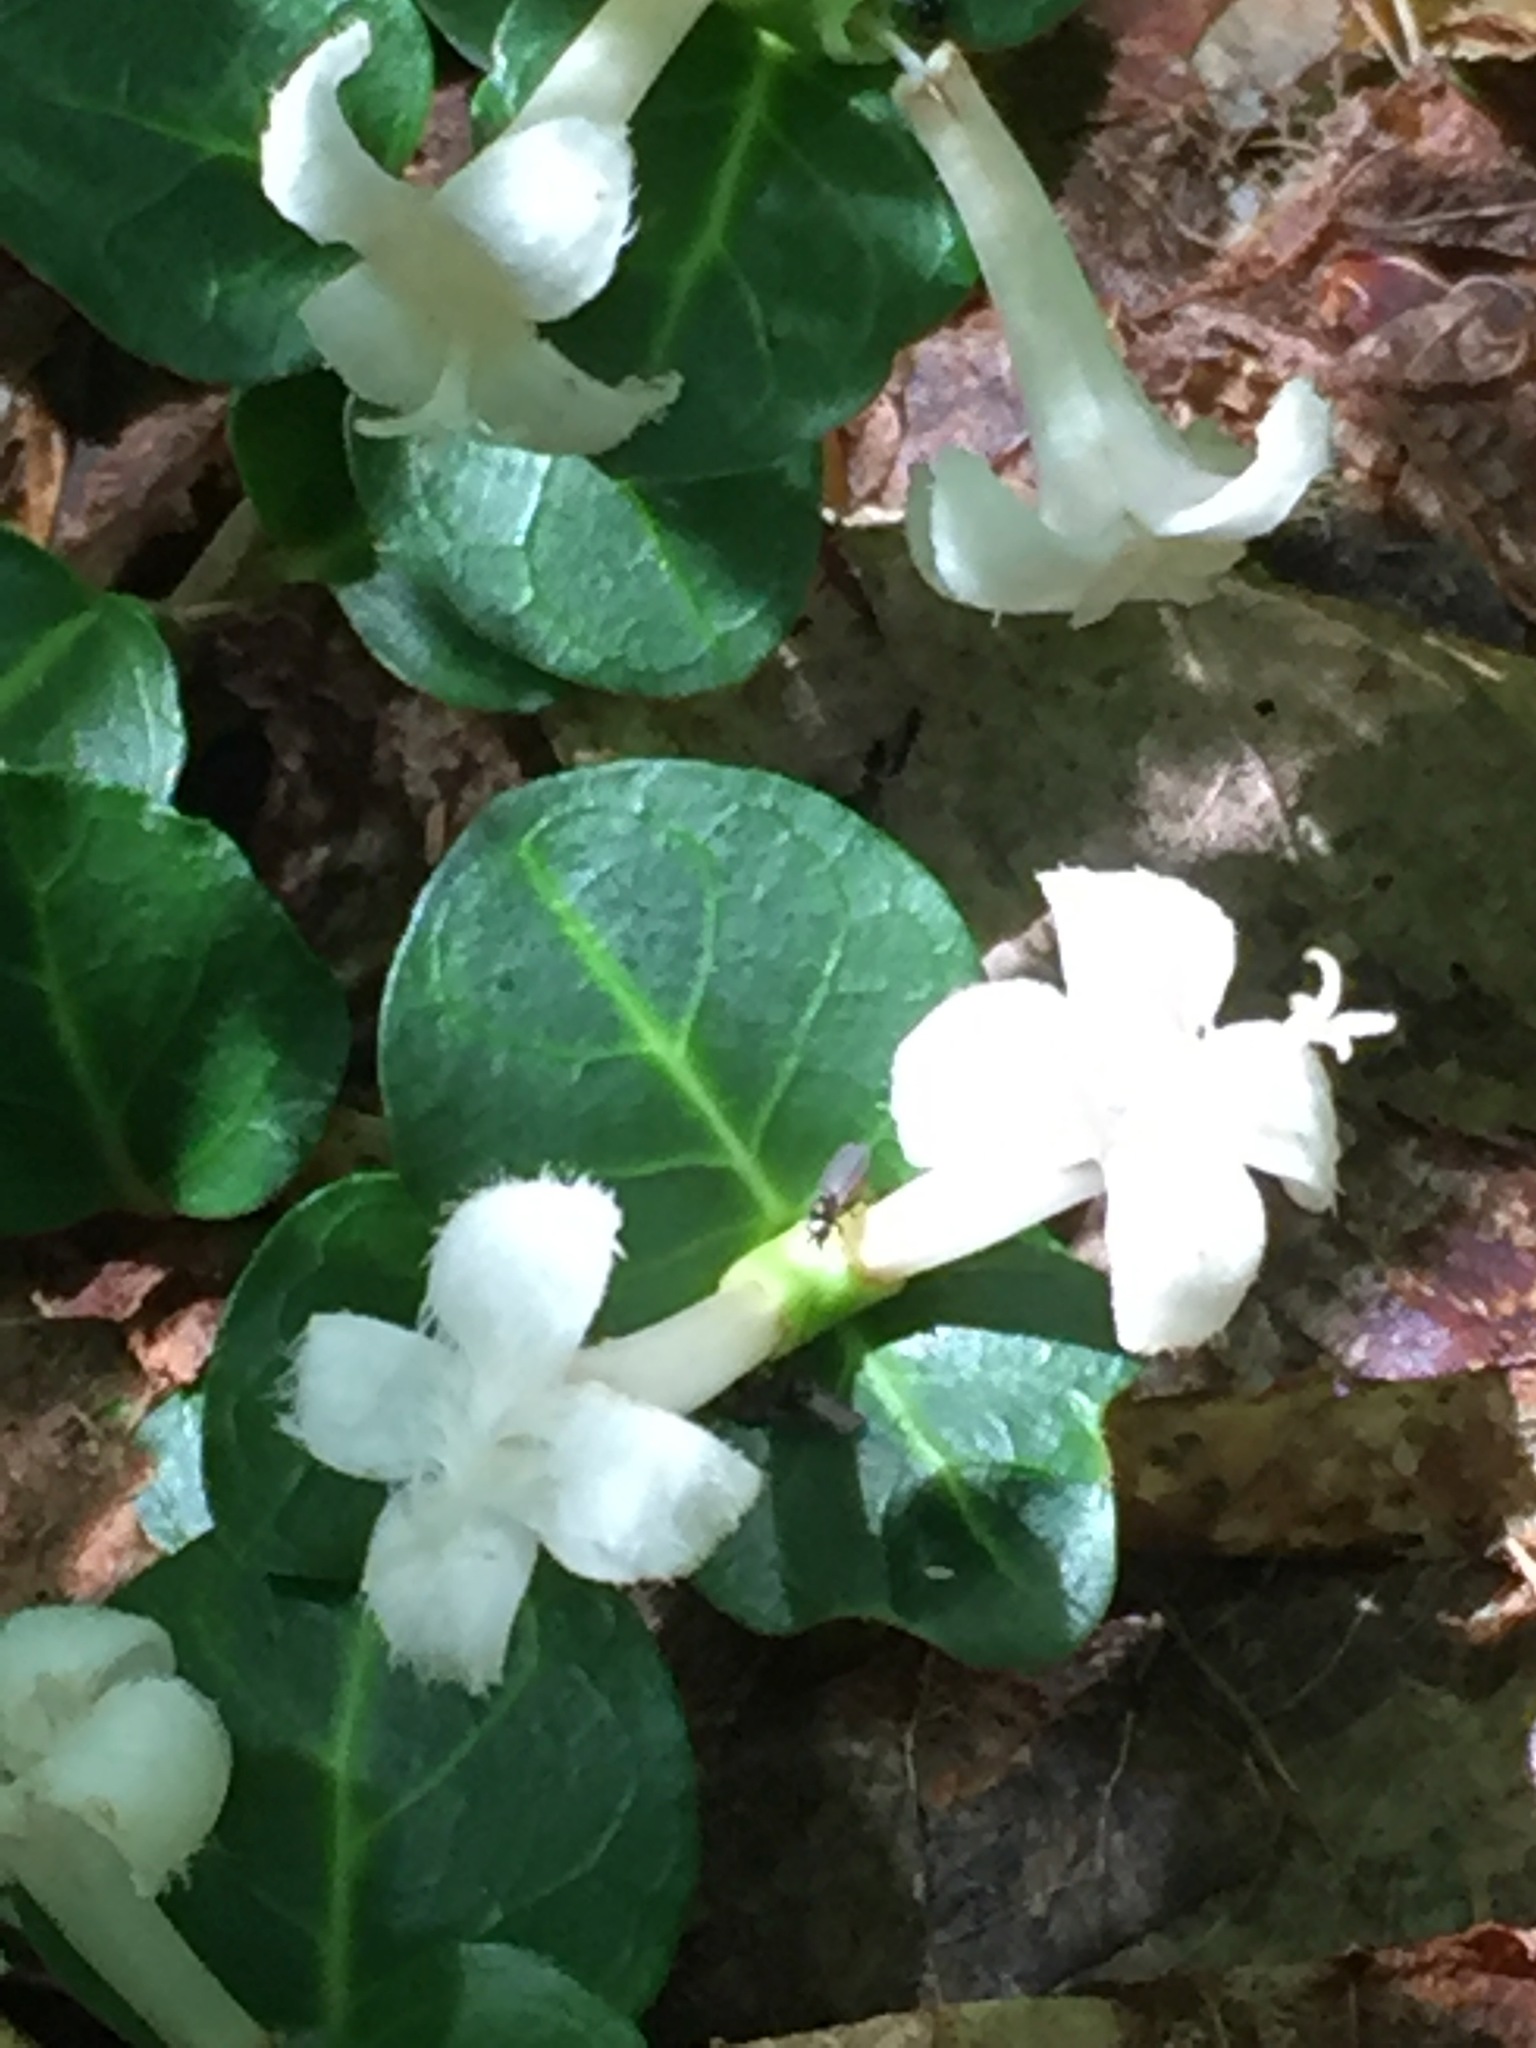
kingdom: Plantae
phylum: Tracheophyta
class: Magnoliopsida
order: Gentianales
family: Rubiaceae
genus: Mitchella
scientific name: Mitchella repens
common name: Partridge-berry
